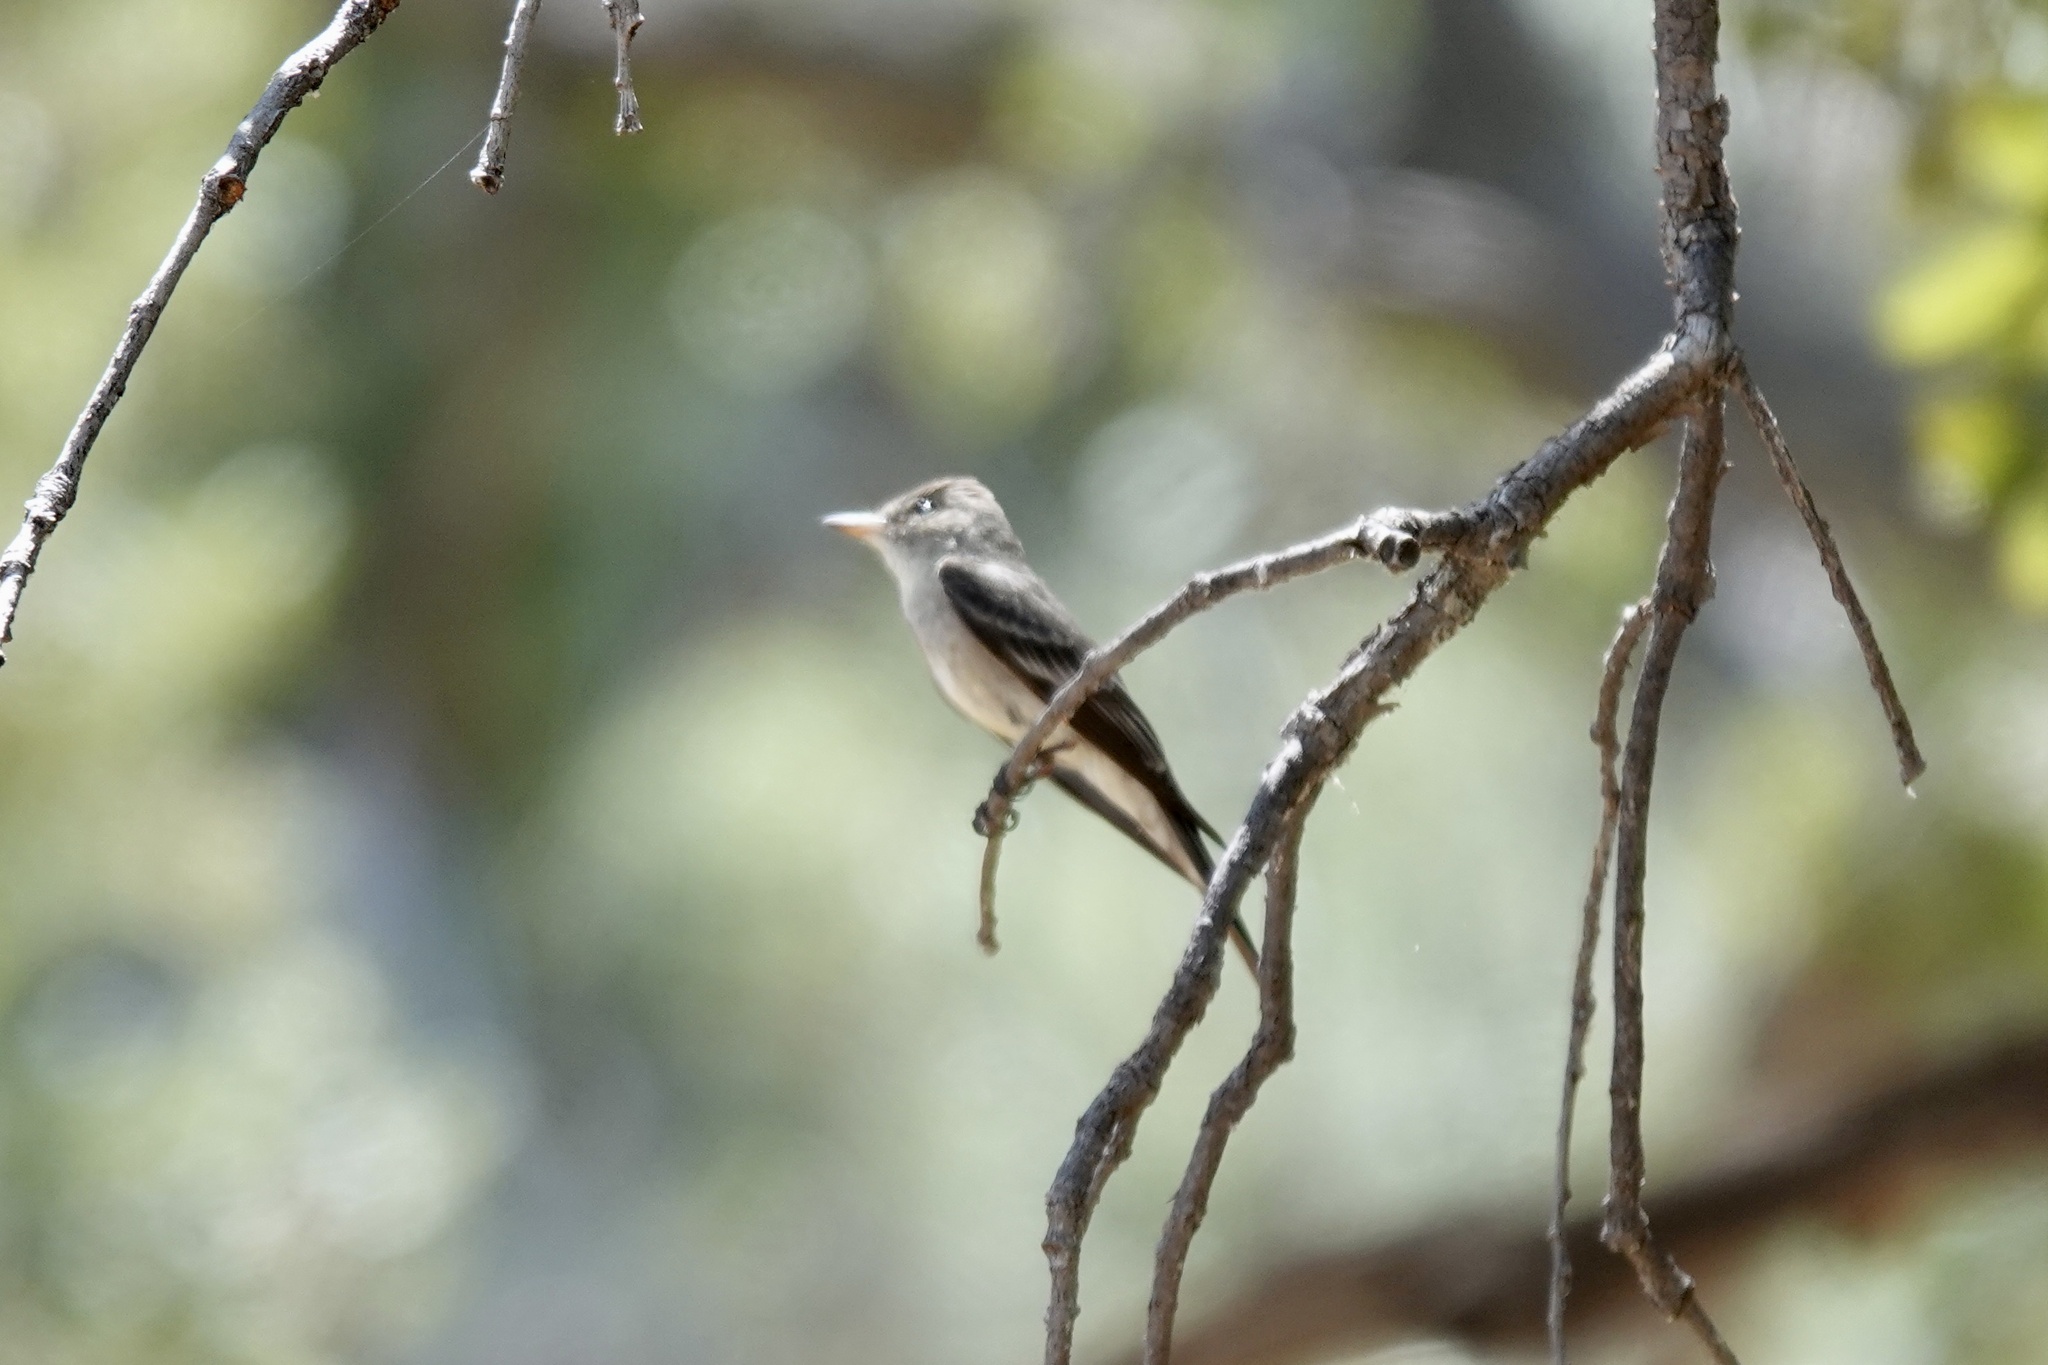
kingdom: Animalia
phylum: Chordata
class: Aves
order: Passeriformes
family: Tyrannidae
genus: Contopus
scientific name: Contopus sordidulus
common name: Western wood-pewee
